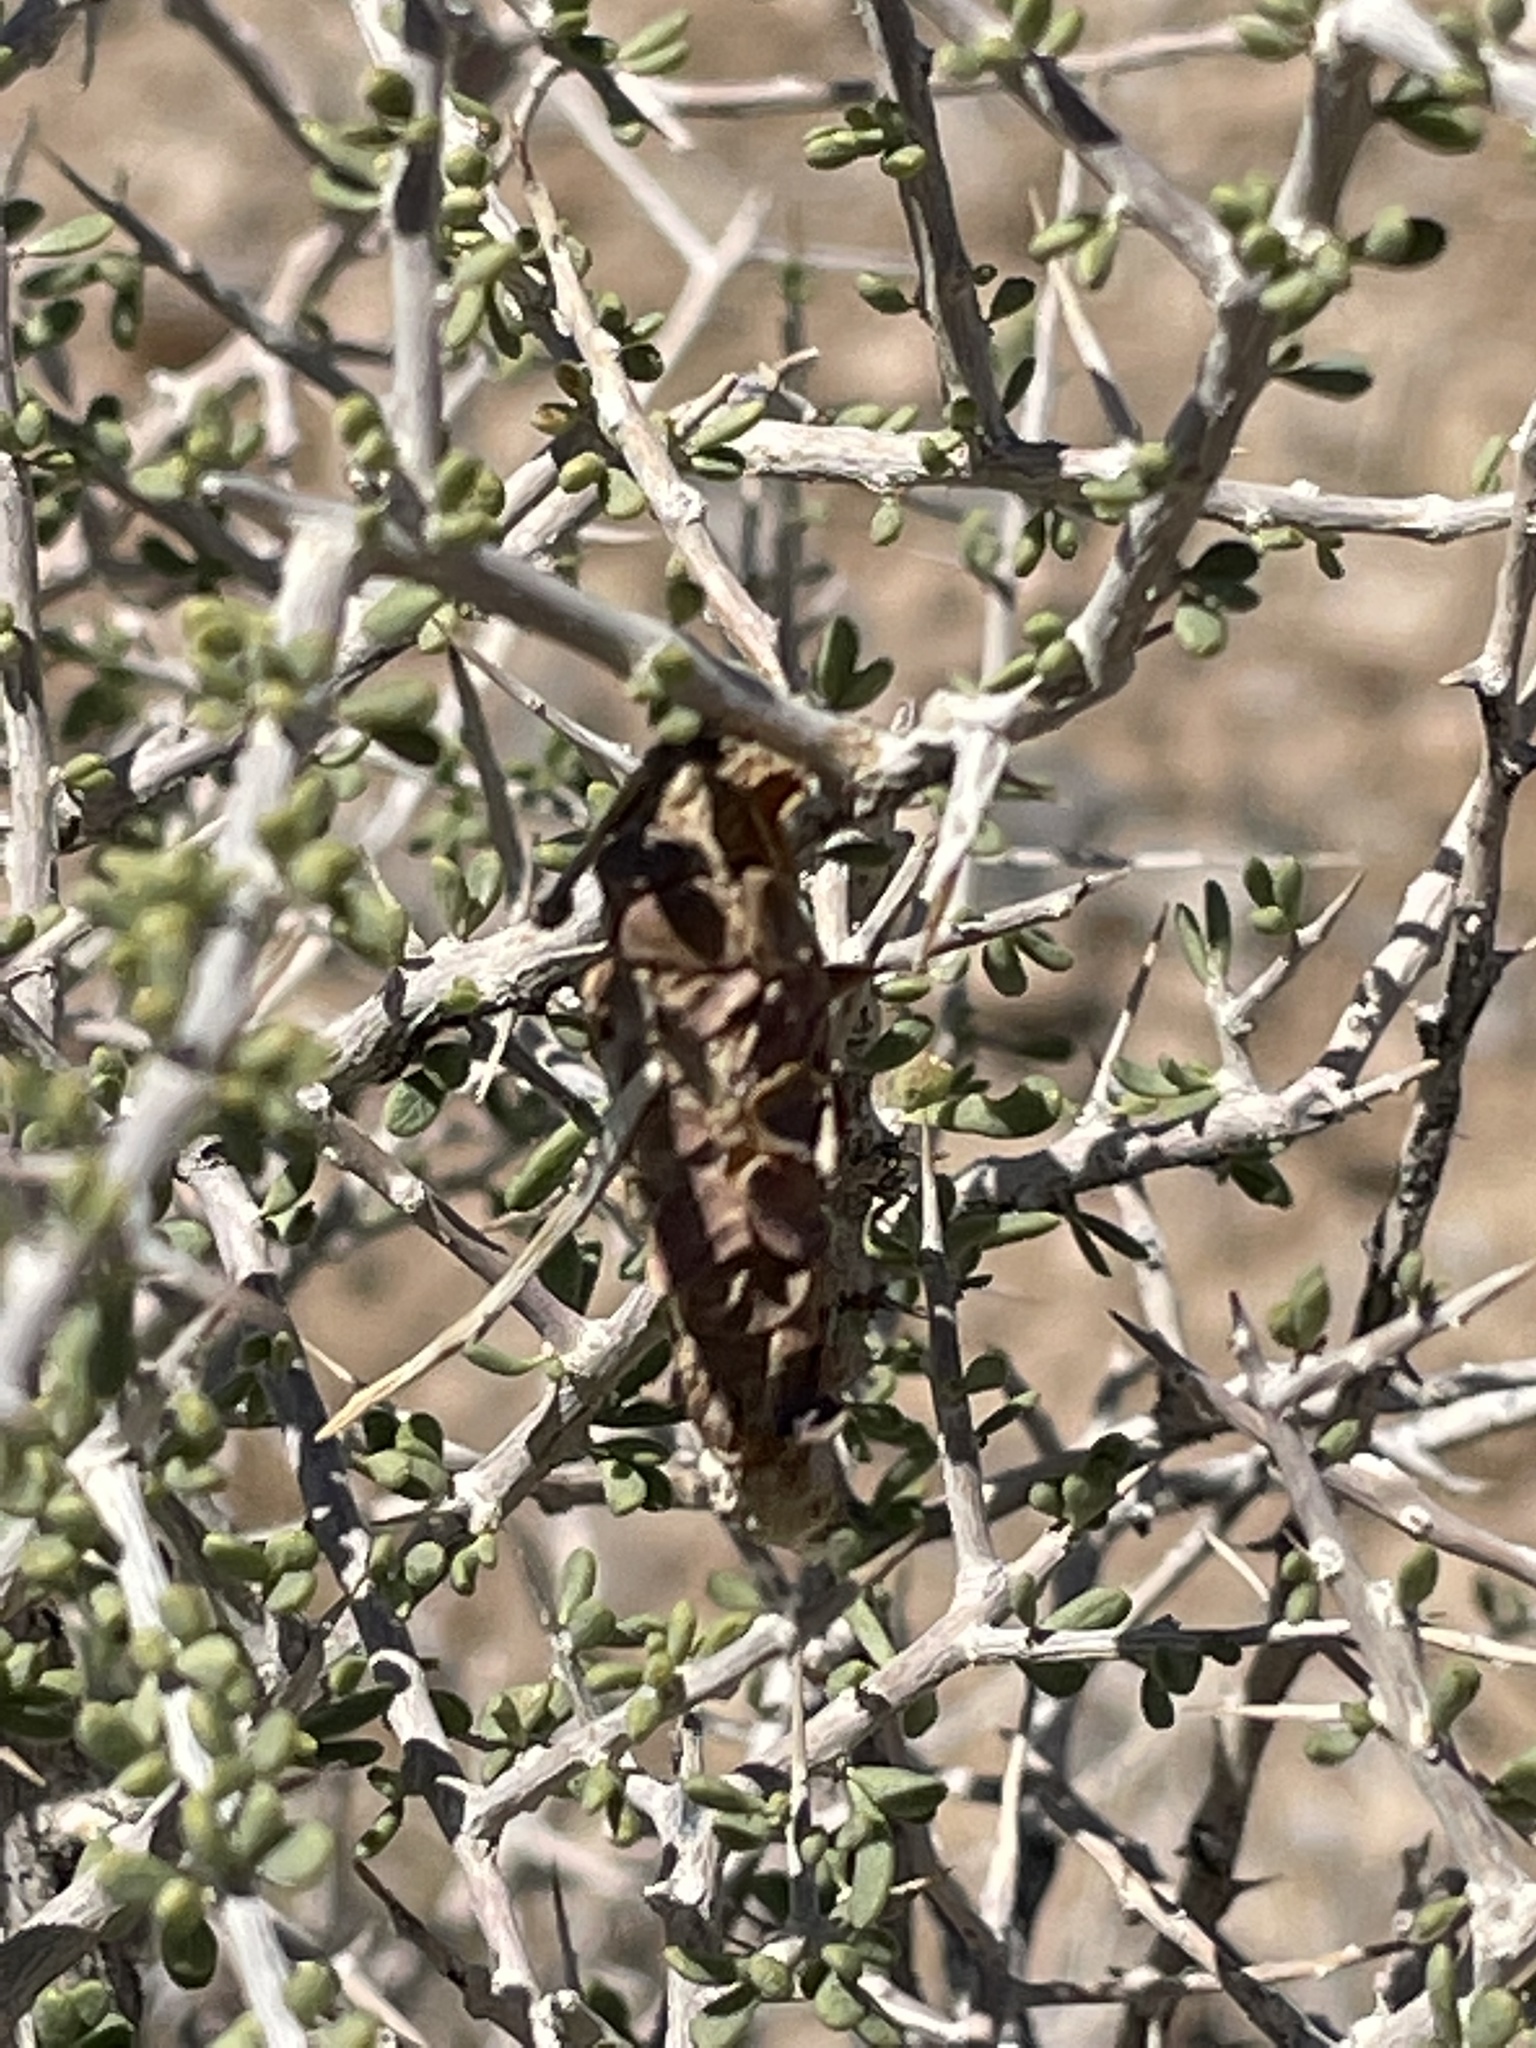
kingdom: Animalia
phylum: Arthropoda
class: Insecta
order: Lepidoptera
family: Psychidae
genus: Thyridopteryx
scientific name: Thyridopteryx meadii
